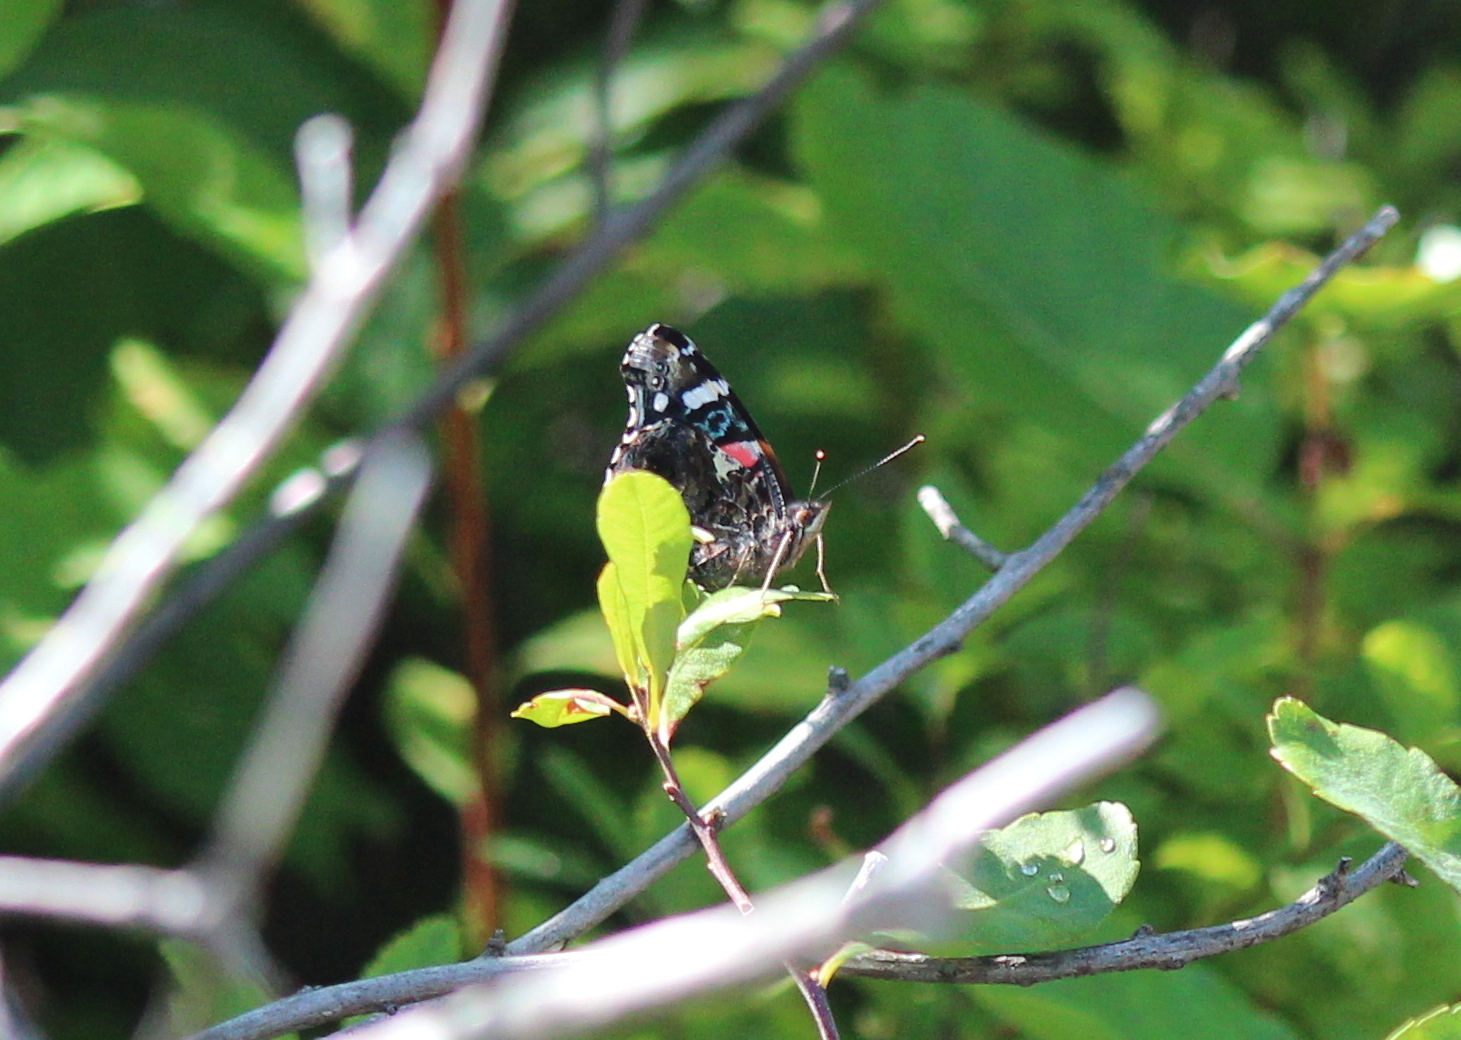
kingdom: Animalia
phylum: Arthropoda
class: Insecta
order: Lepidoptera
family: Nymphalidae
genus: Vanessa
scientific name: Vanessa atalanta
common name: Red admiral
